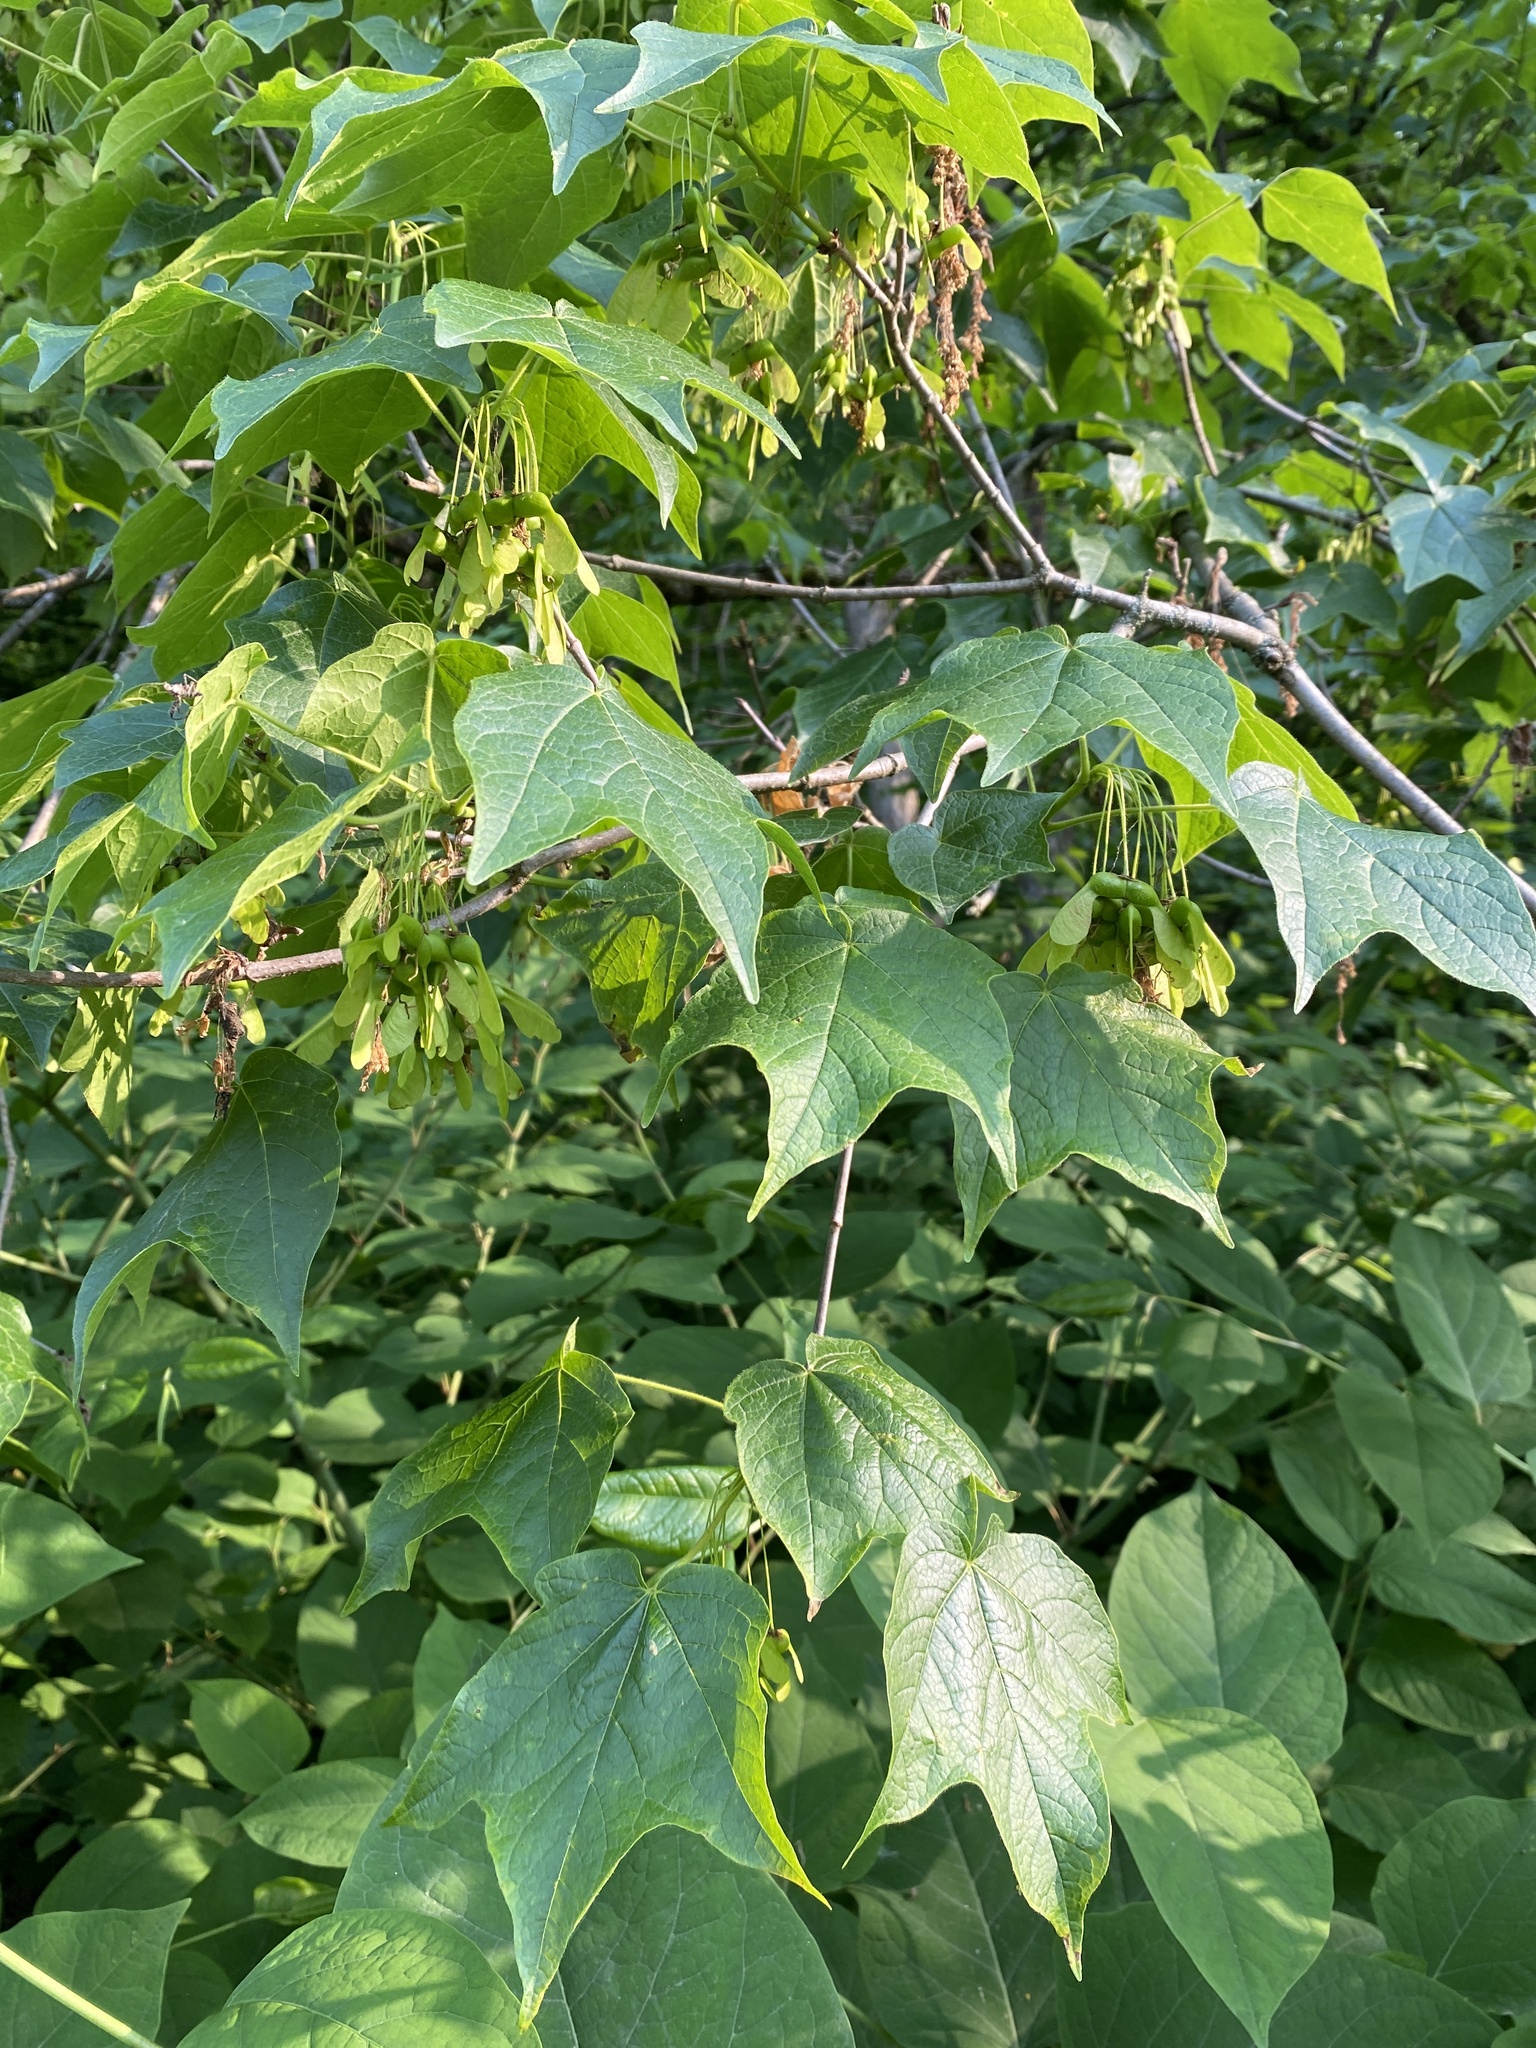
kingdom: Plantae
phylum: Tracheophyta
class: Magnoliopsida
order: Sapindales
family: Sapindaceae
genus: Acer
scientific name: Acer nigrum
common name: Black maple
